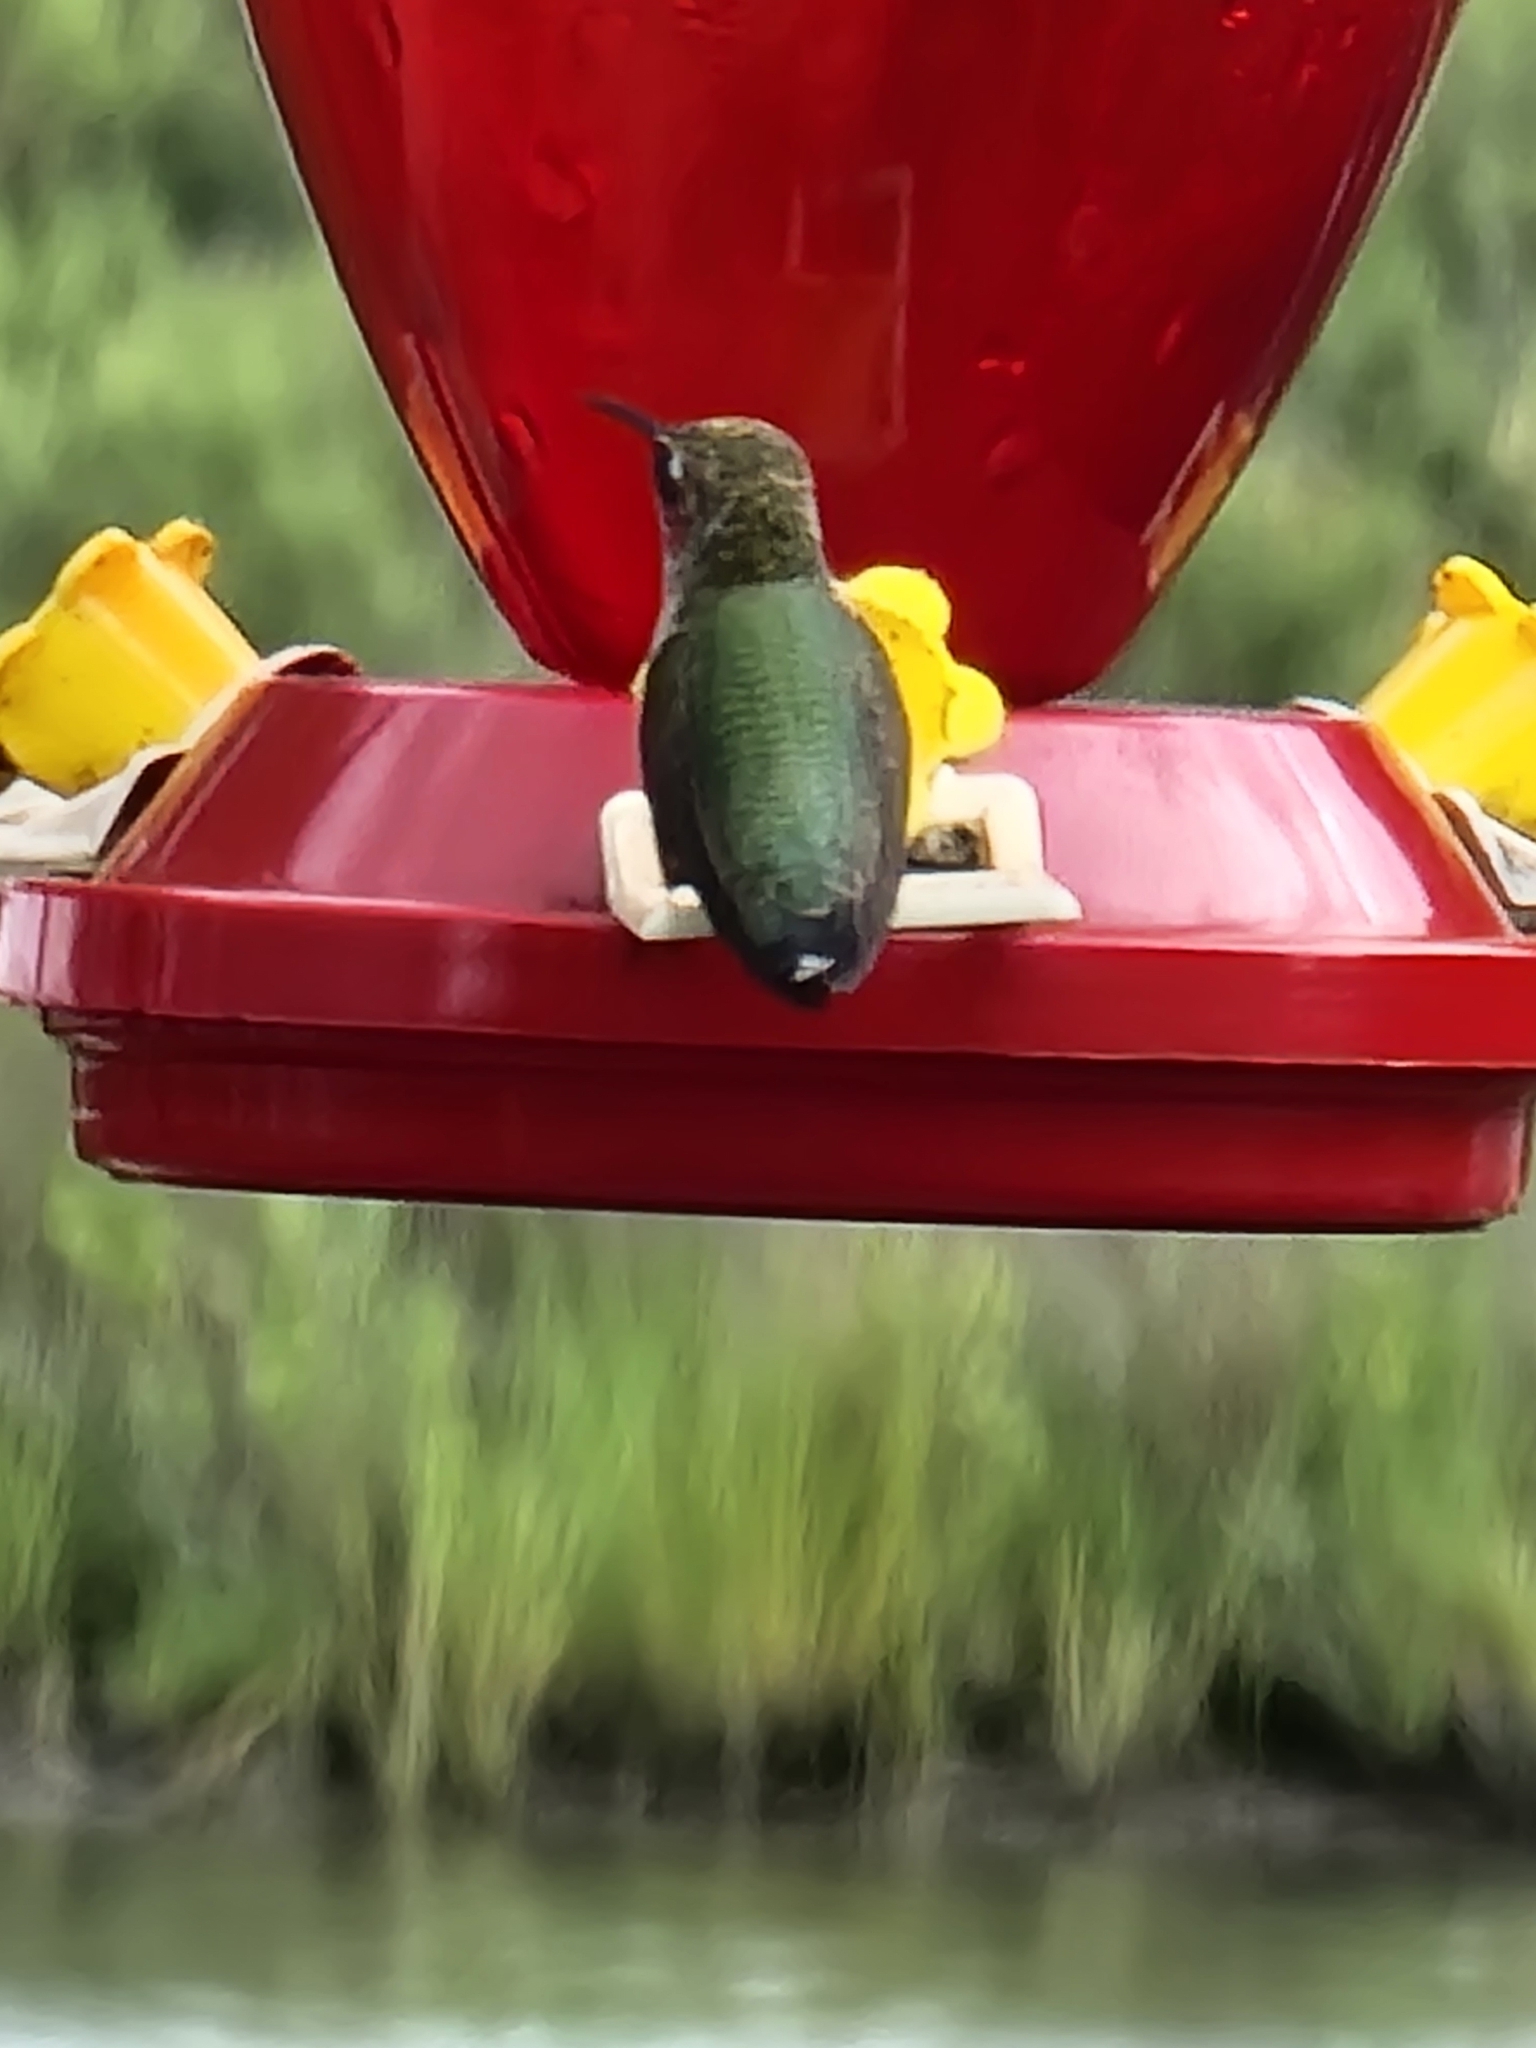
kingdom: Animalia
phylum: Chordata
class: Aves
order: Apodiformes
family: Trochilidae
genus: Archilochus
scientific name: Archilochus colubris
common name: Ruby-throated hummingbird
